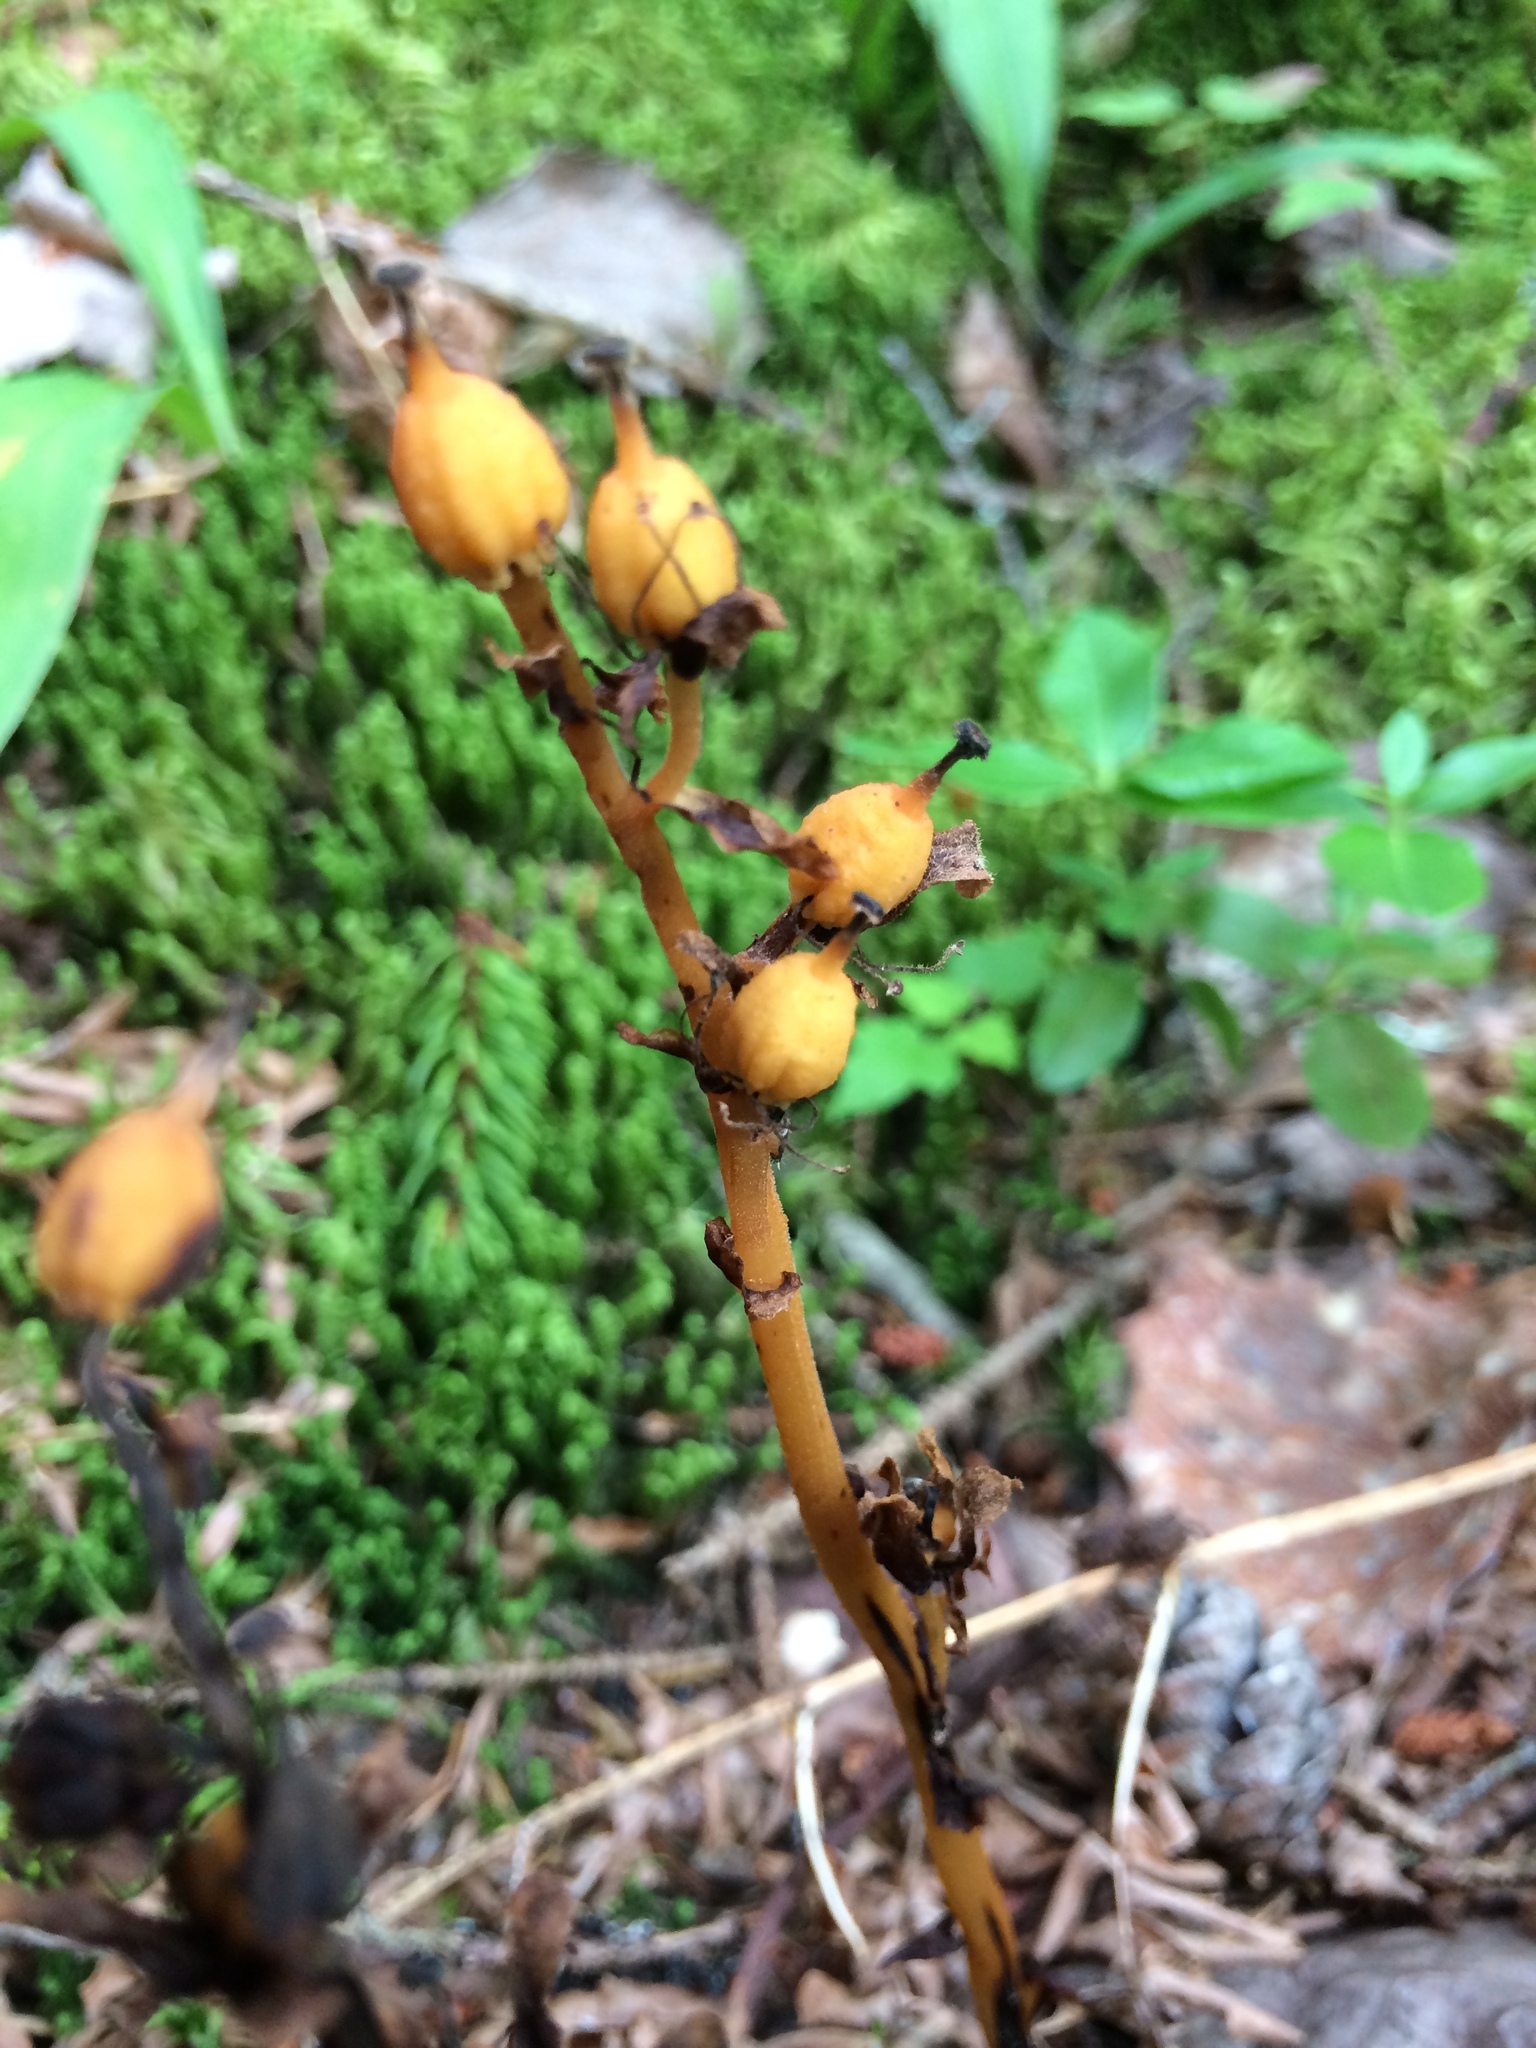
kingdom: Plantae
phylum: Tracheophyta
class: Magnoliopsida
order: Ericales
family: Ericaceae
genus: Hypopitys
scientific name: Hypopitys monotropa
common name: Yellow bird's-nest
